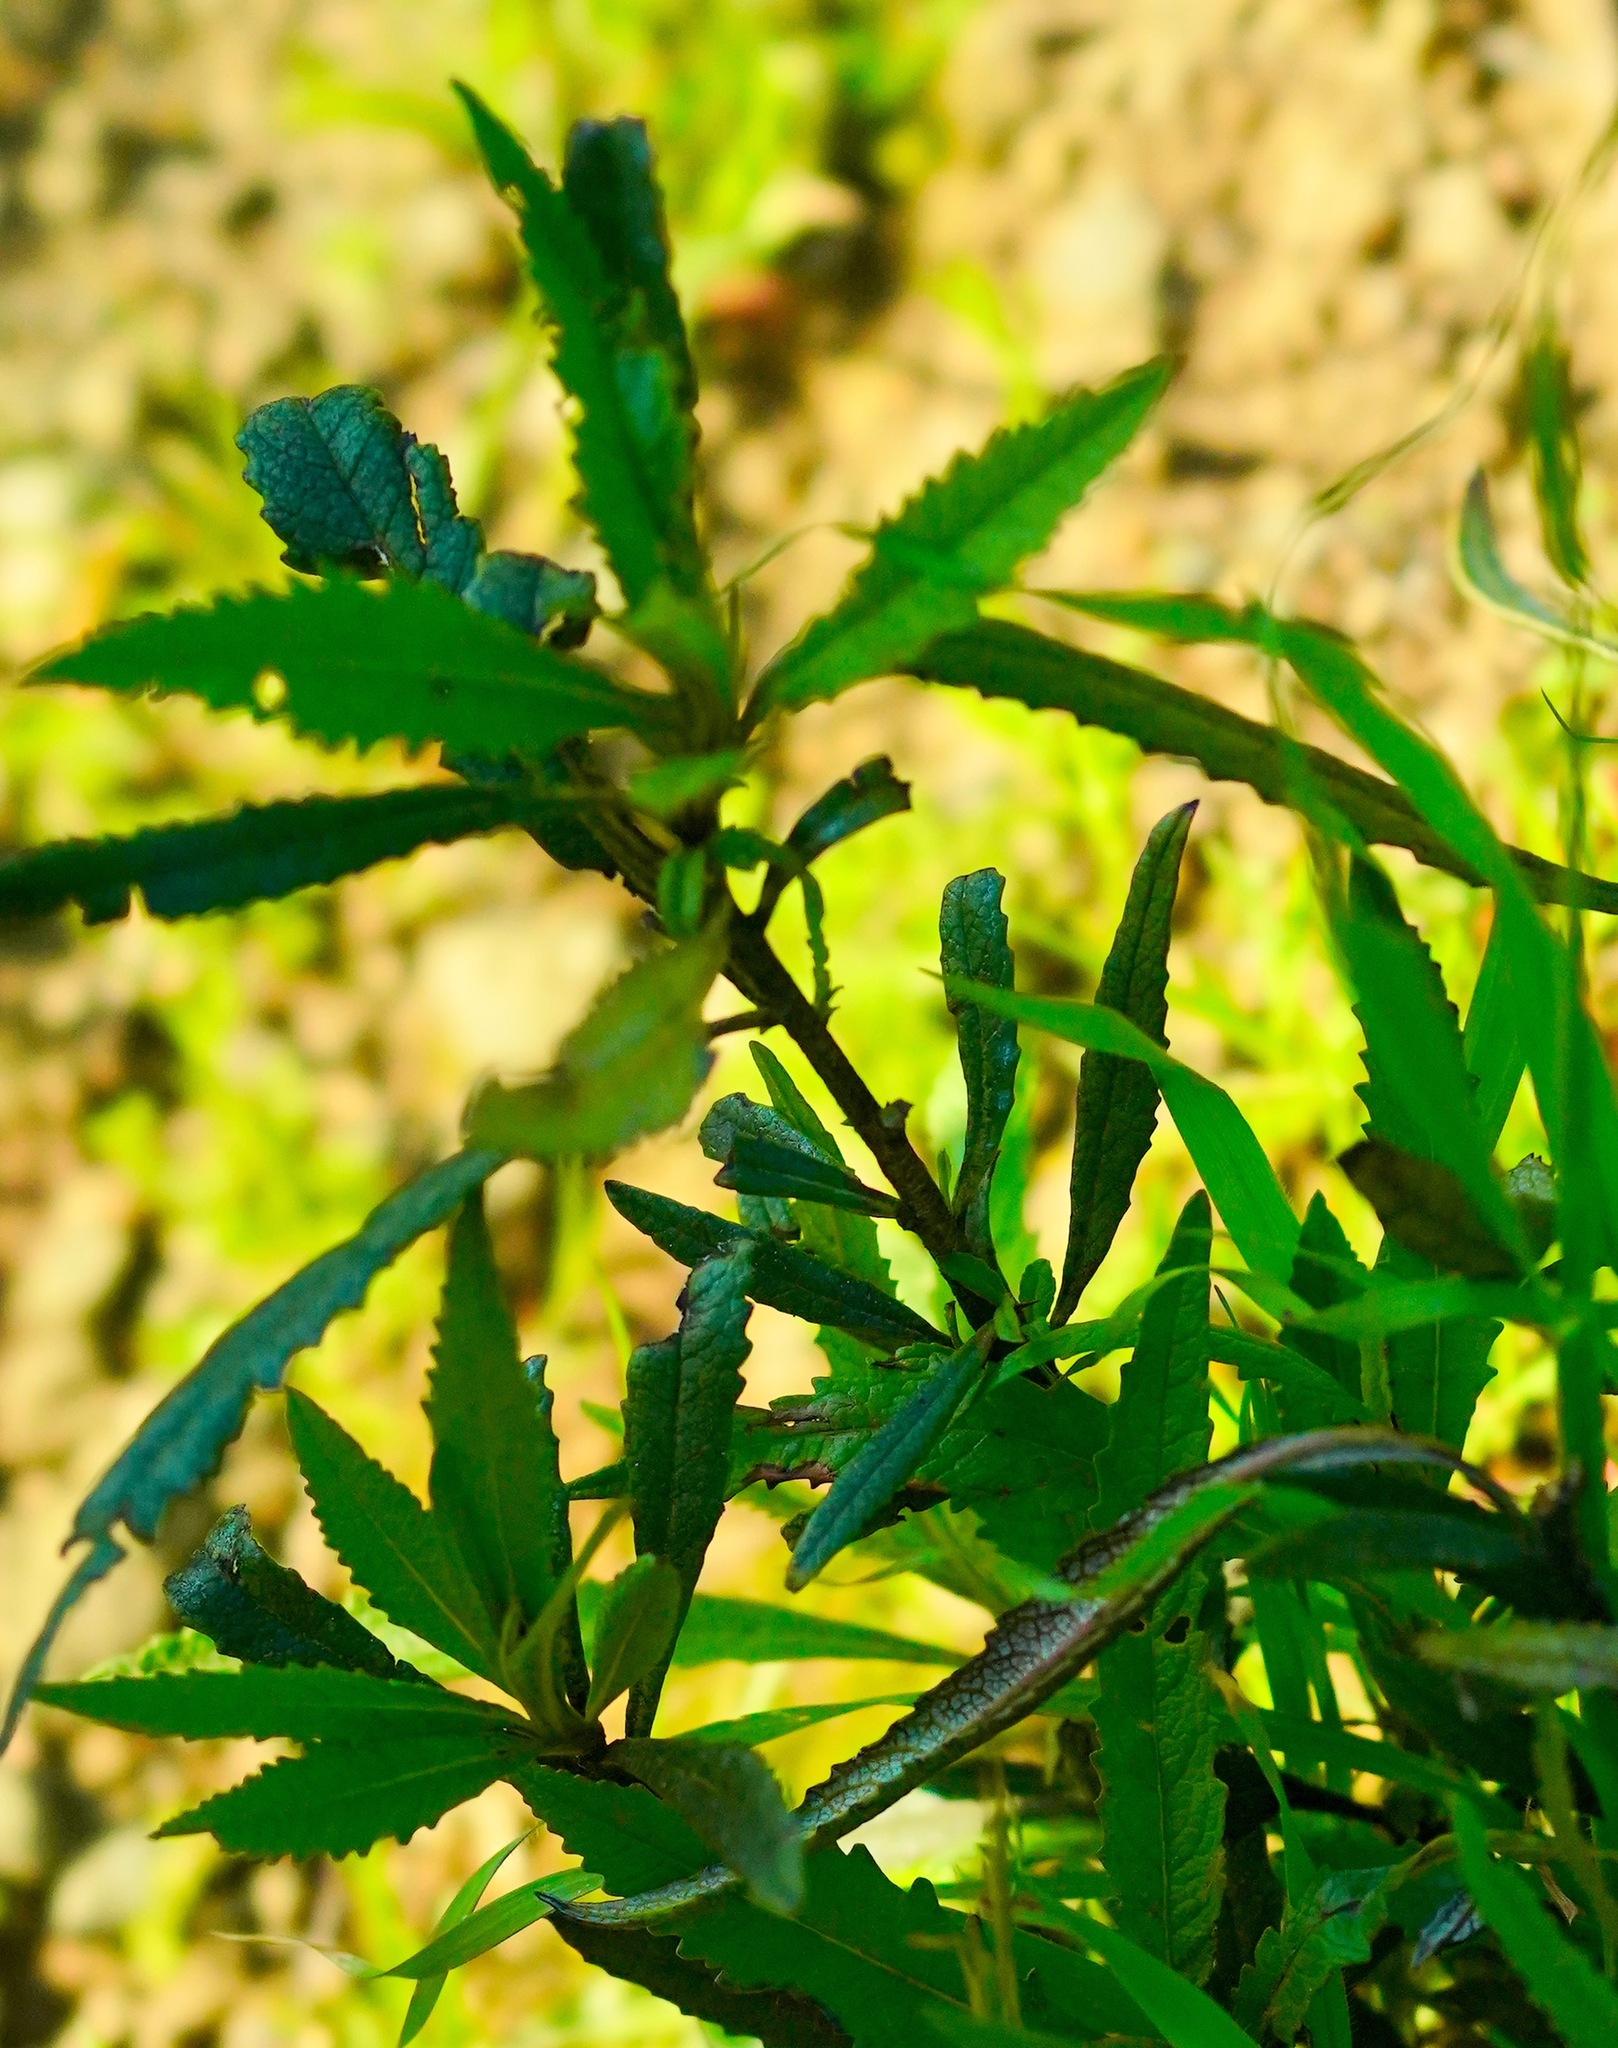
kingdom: Plantae
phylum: Tracheophyta
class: Magnoliopsida
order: Boraginales
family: Namaceae
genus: Eriodictyon
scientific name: Eriodictyon californicum
